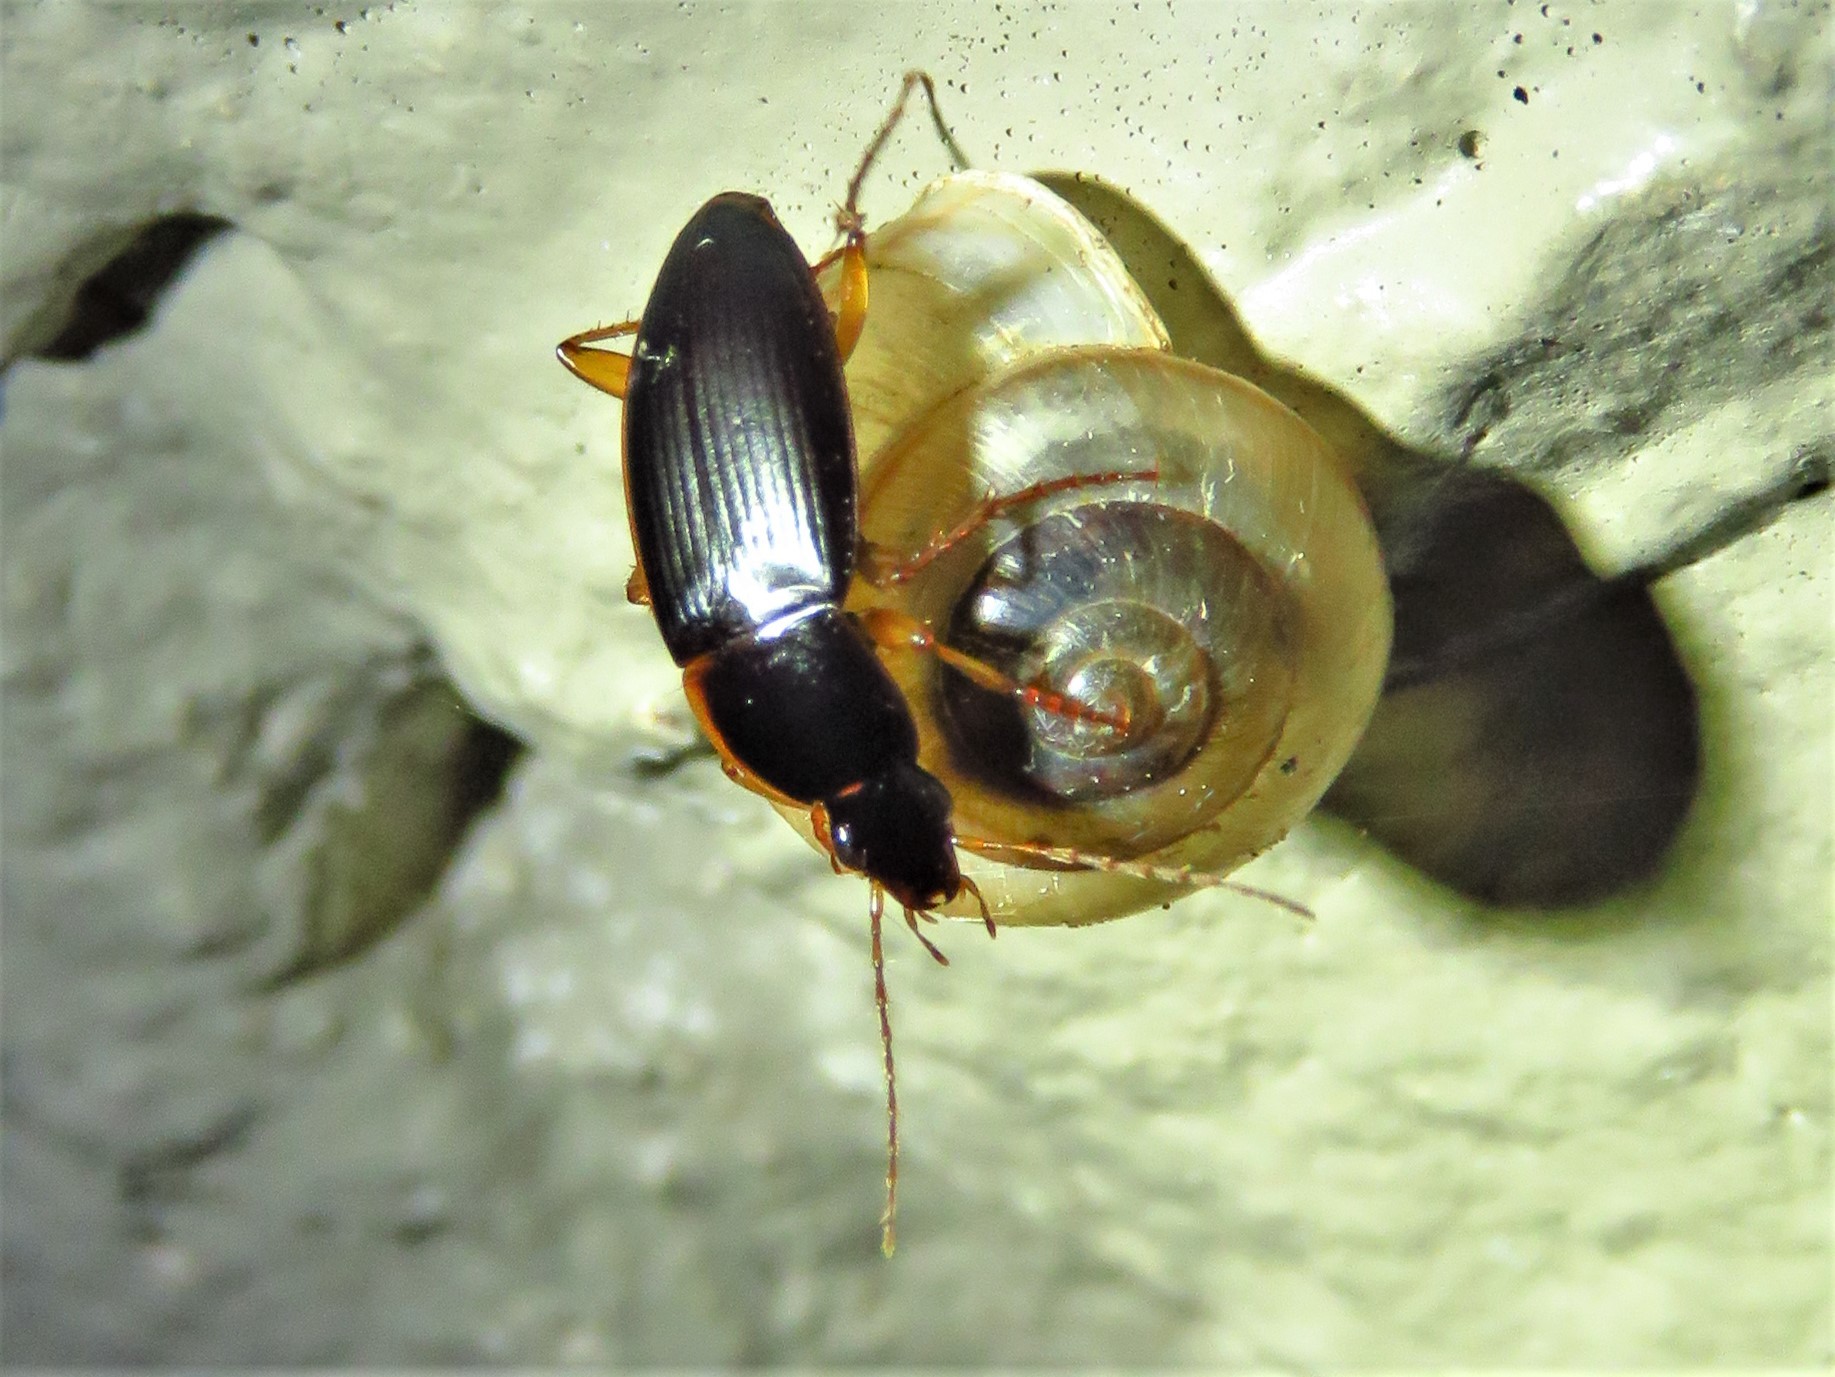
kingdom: Animalia
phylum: Arthropoda
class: Insecta
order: Coleoptera
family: Carabidae
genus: Calathus
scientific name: Calathus opaculus
